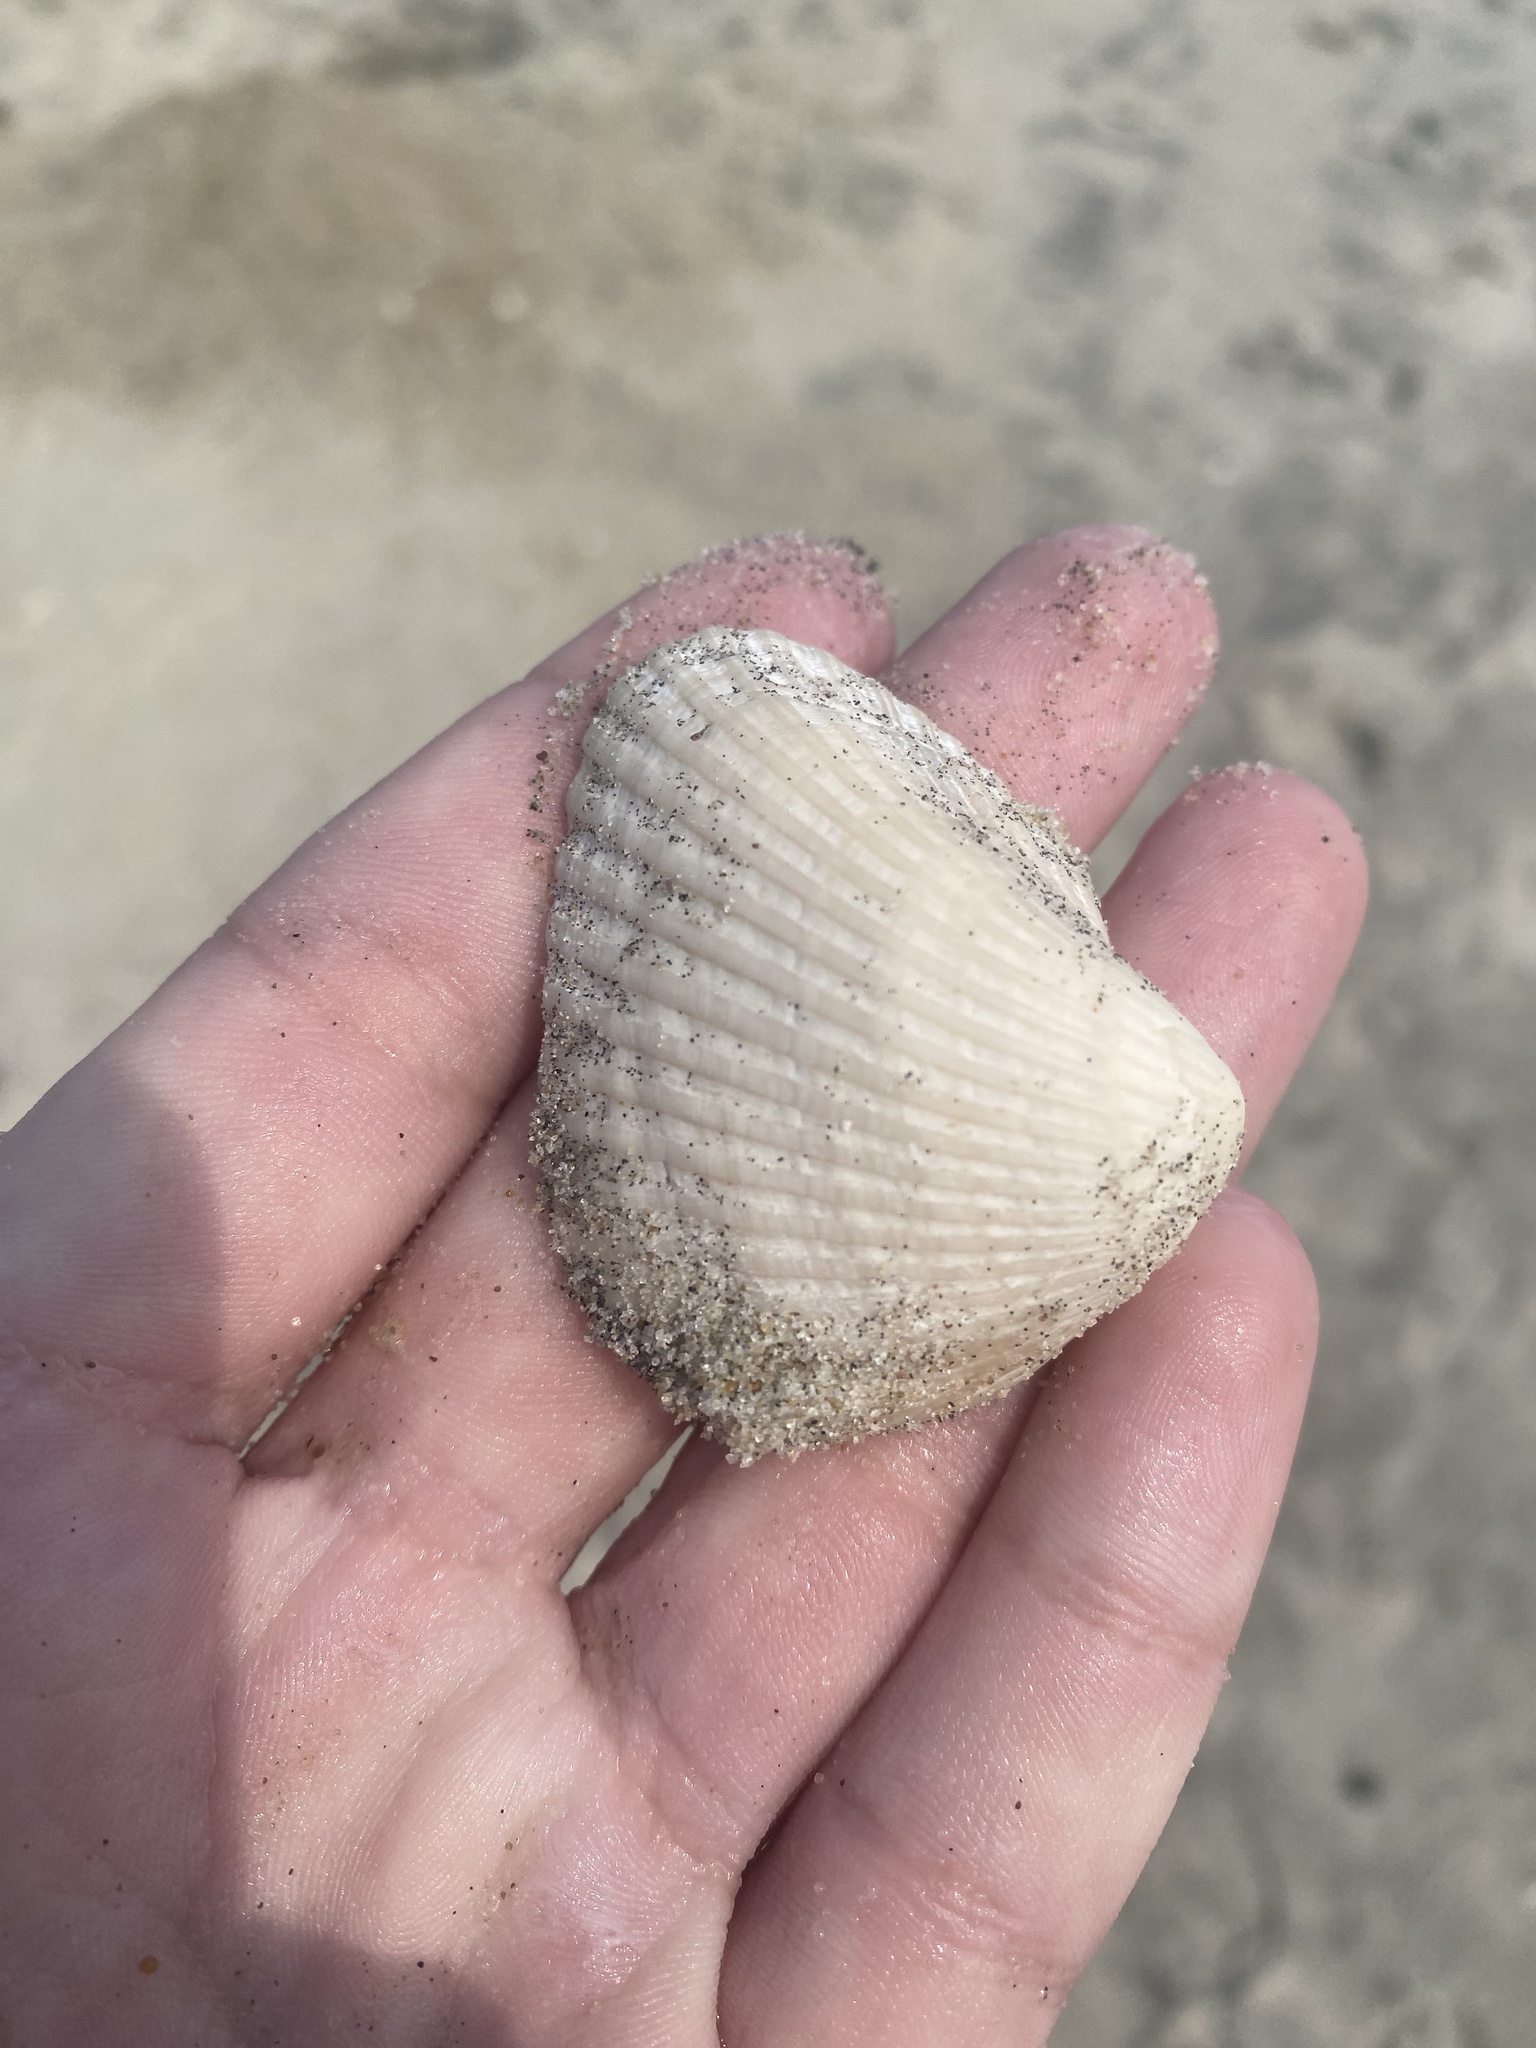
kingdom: Animalia
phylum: Mollusca
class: Bivalvia
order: Arcida
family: Noetiidae
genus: Noetia
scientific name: Noetia ponderosa
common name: Ponderous ark
